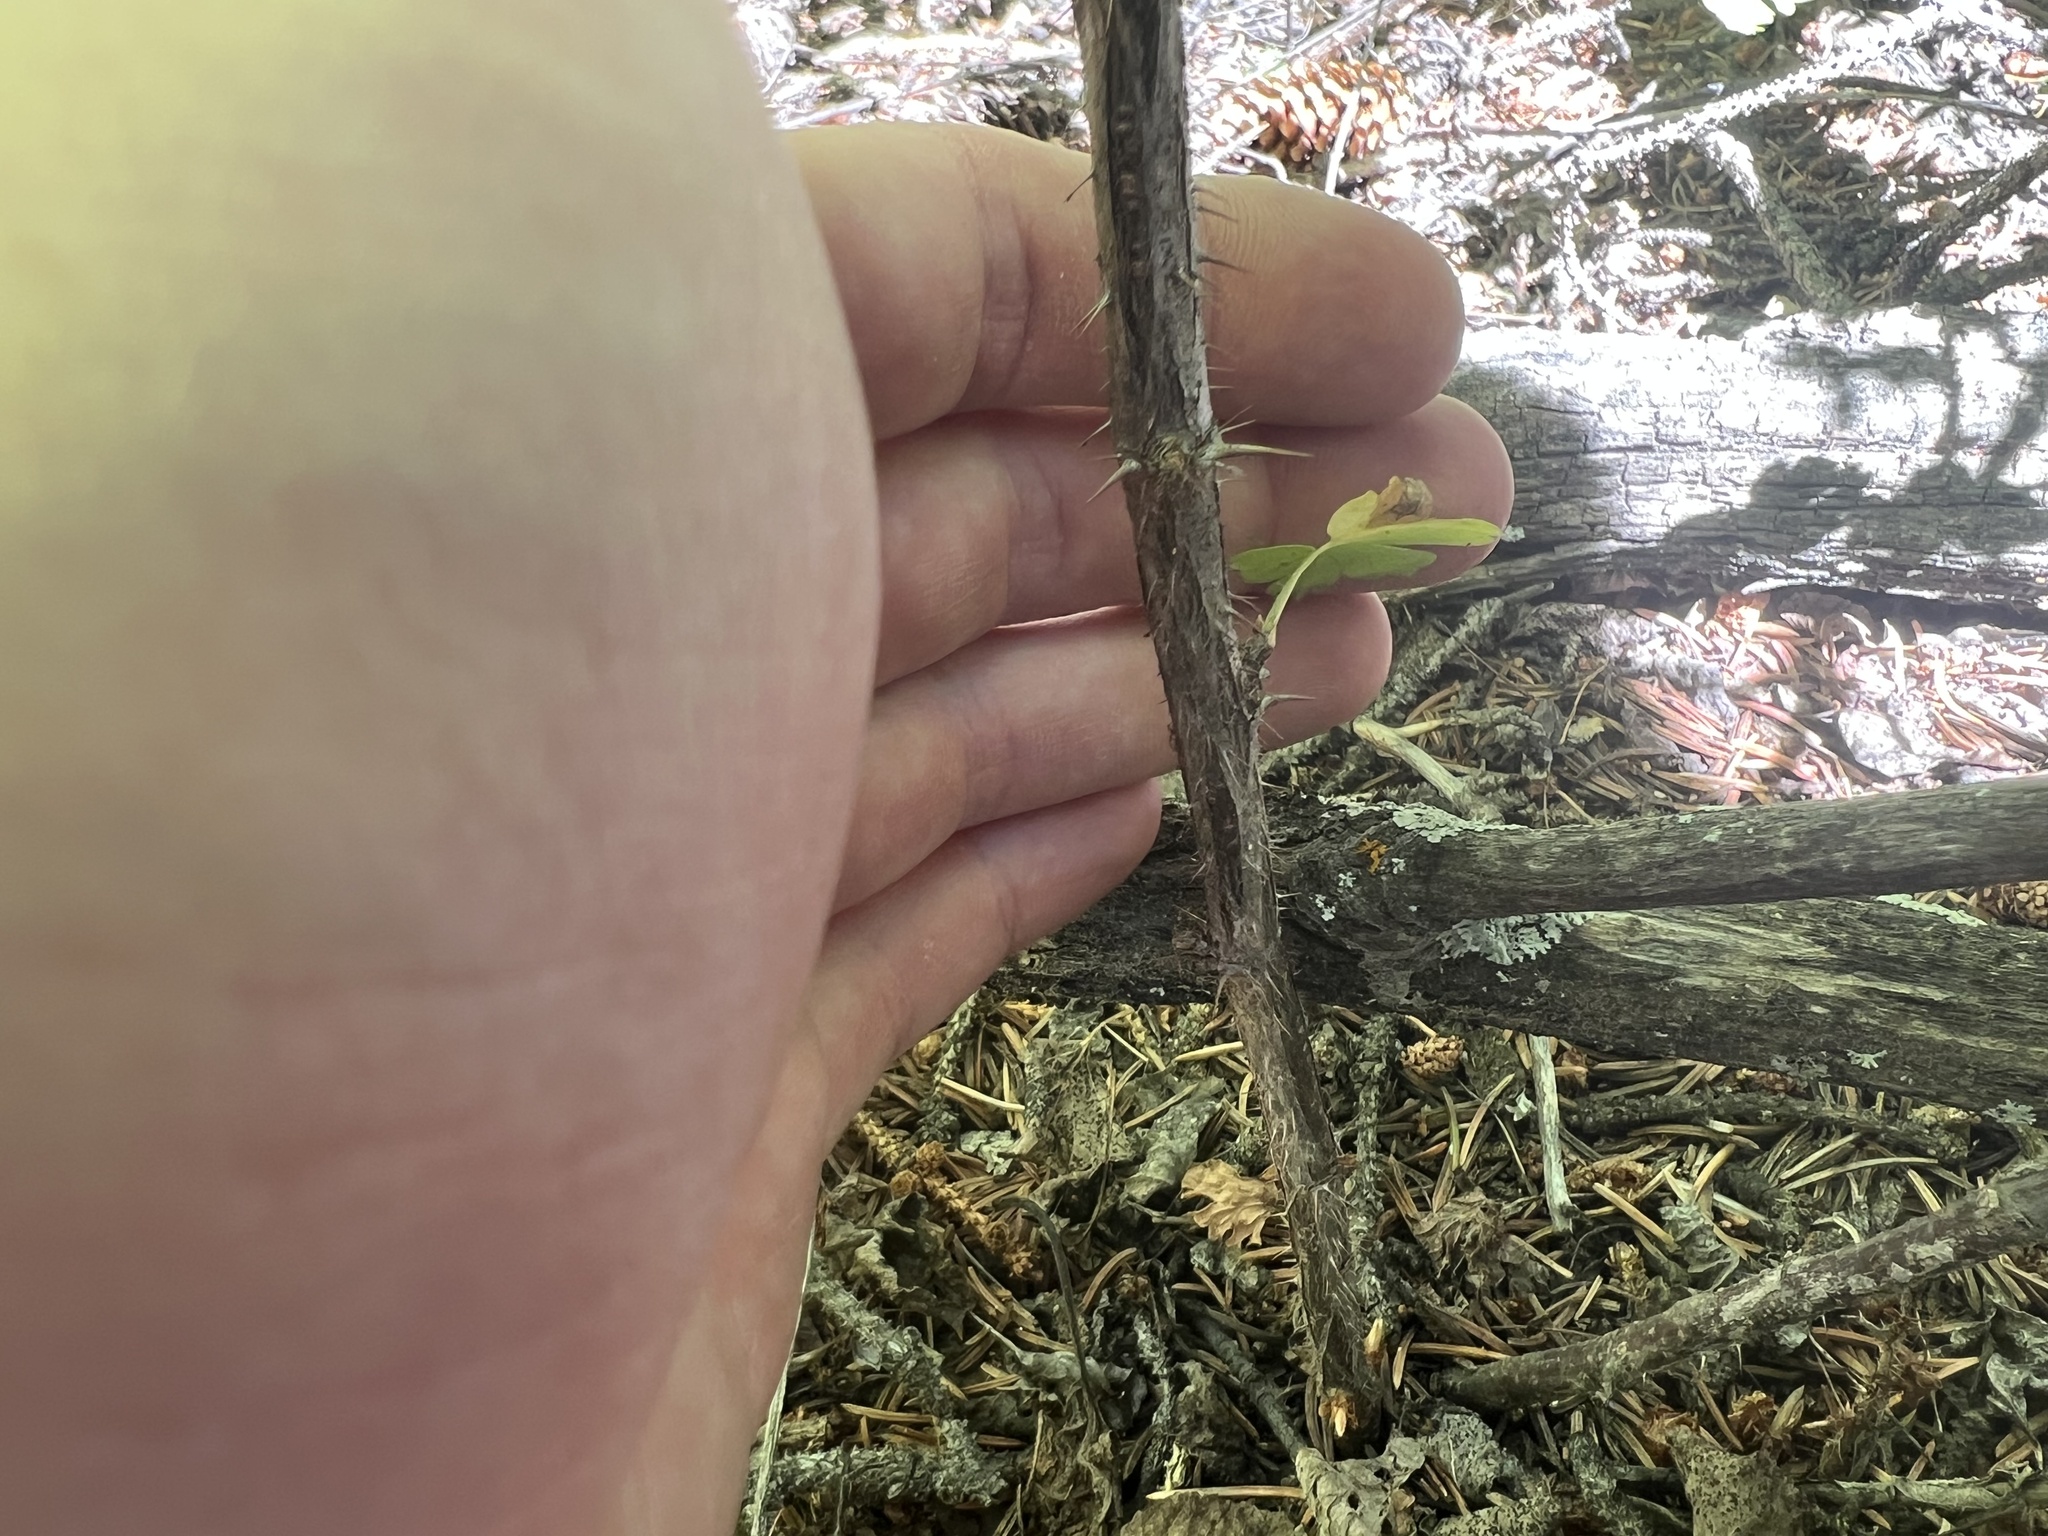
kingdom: Plantae
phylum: Tracheophyta
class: Magnoliopsida
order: Saxifragales
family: Grossulariaceae
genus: Ribes
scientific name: Ribes inerme
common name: White-stem gooseberry
